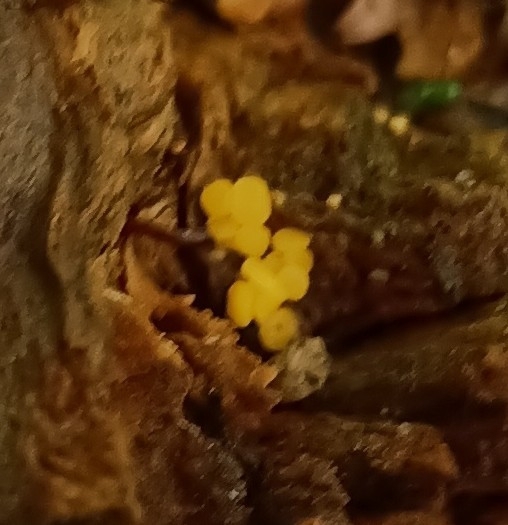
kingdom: Fungi
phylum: Ascomycota
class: Leotiomycetes
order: Helotiales
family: Pezizellaceae
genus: Calycina
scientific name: Calycina citrina
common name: Yellow fairy cups
